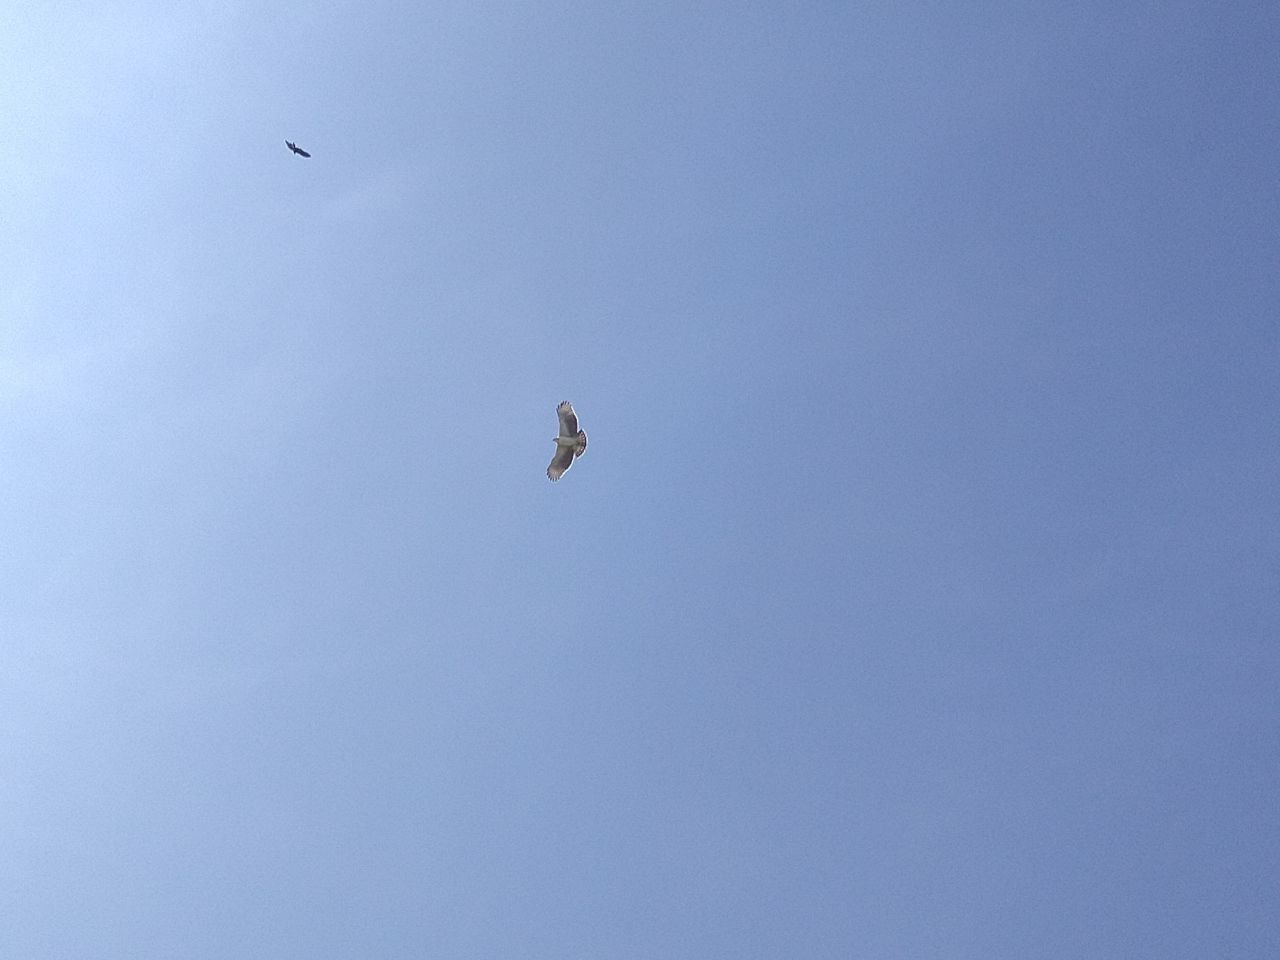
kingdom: Animalia
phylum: Chordata
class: Aves
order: Accipitriformes
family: Accipitridae
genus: Buteo
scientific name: Buteo brachyurus
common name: Short-tailed hawk
